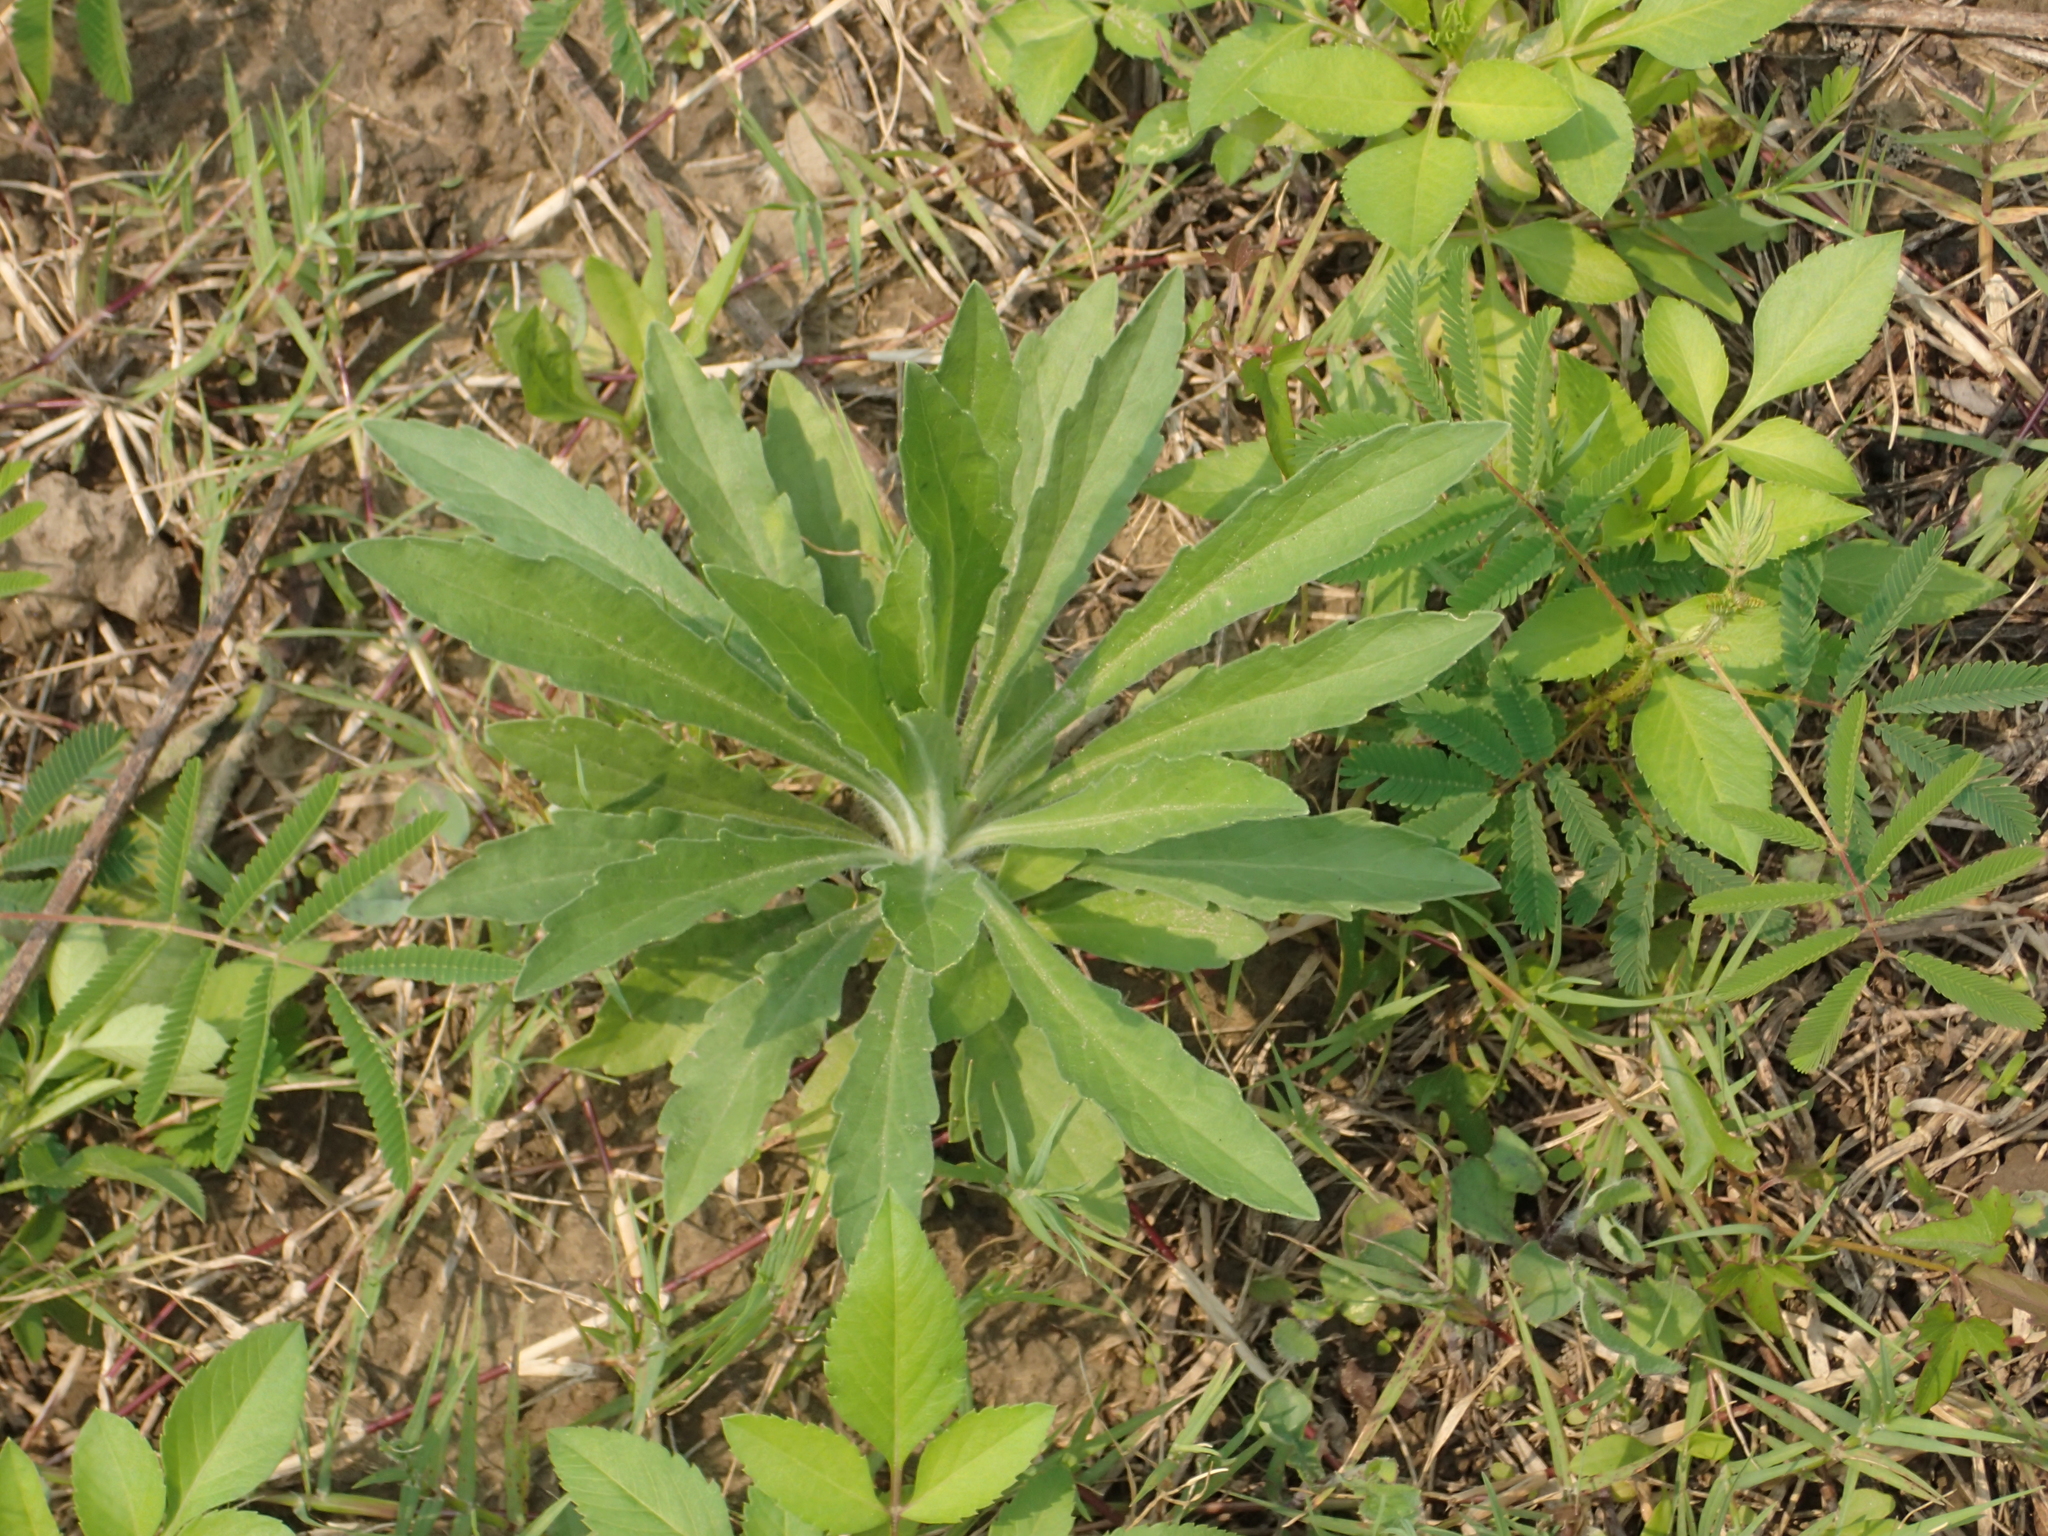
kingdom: Plantae
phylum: Tracheophyta
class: Magnoliopsida
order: Asterales
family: Asteraceae
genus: Erigeron
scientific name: Erigeron sumatrensis
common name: Daisy
